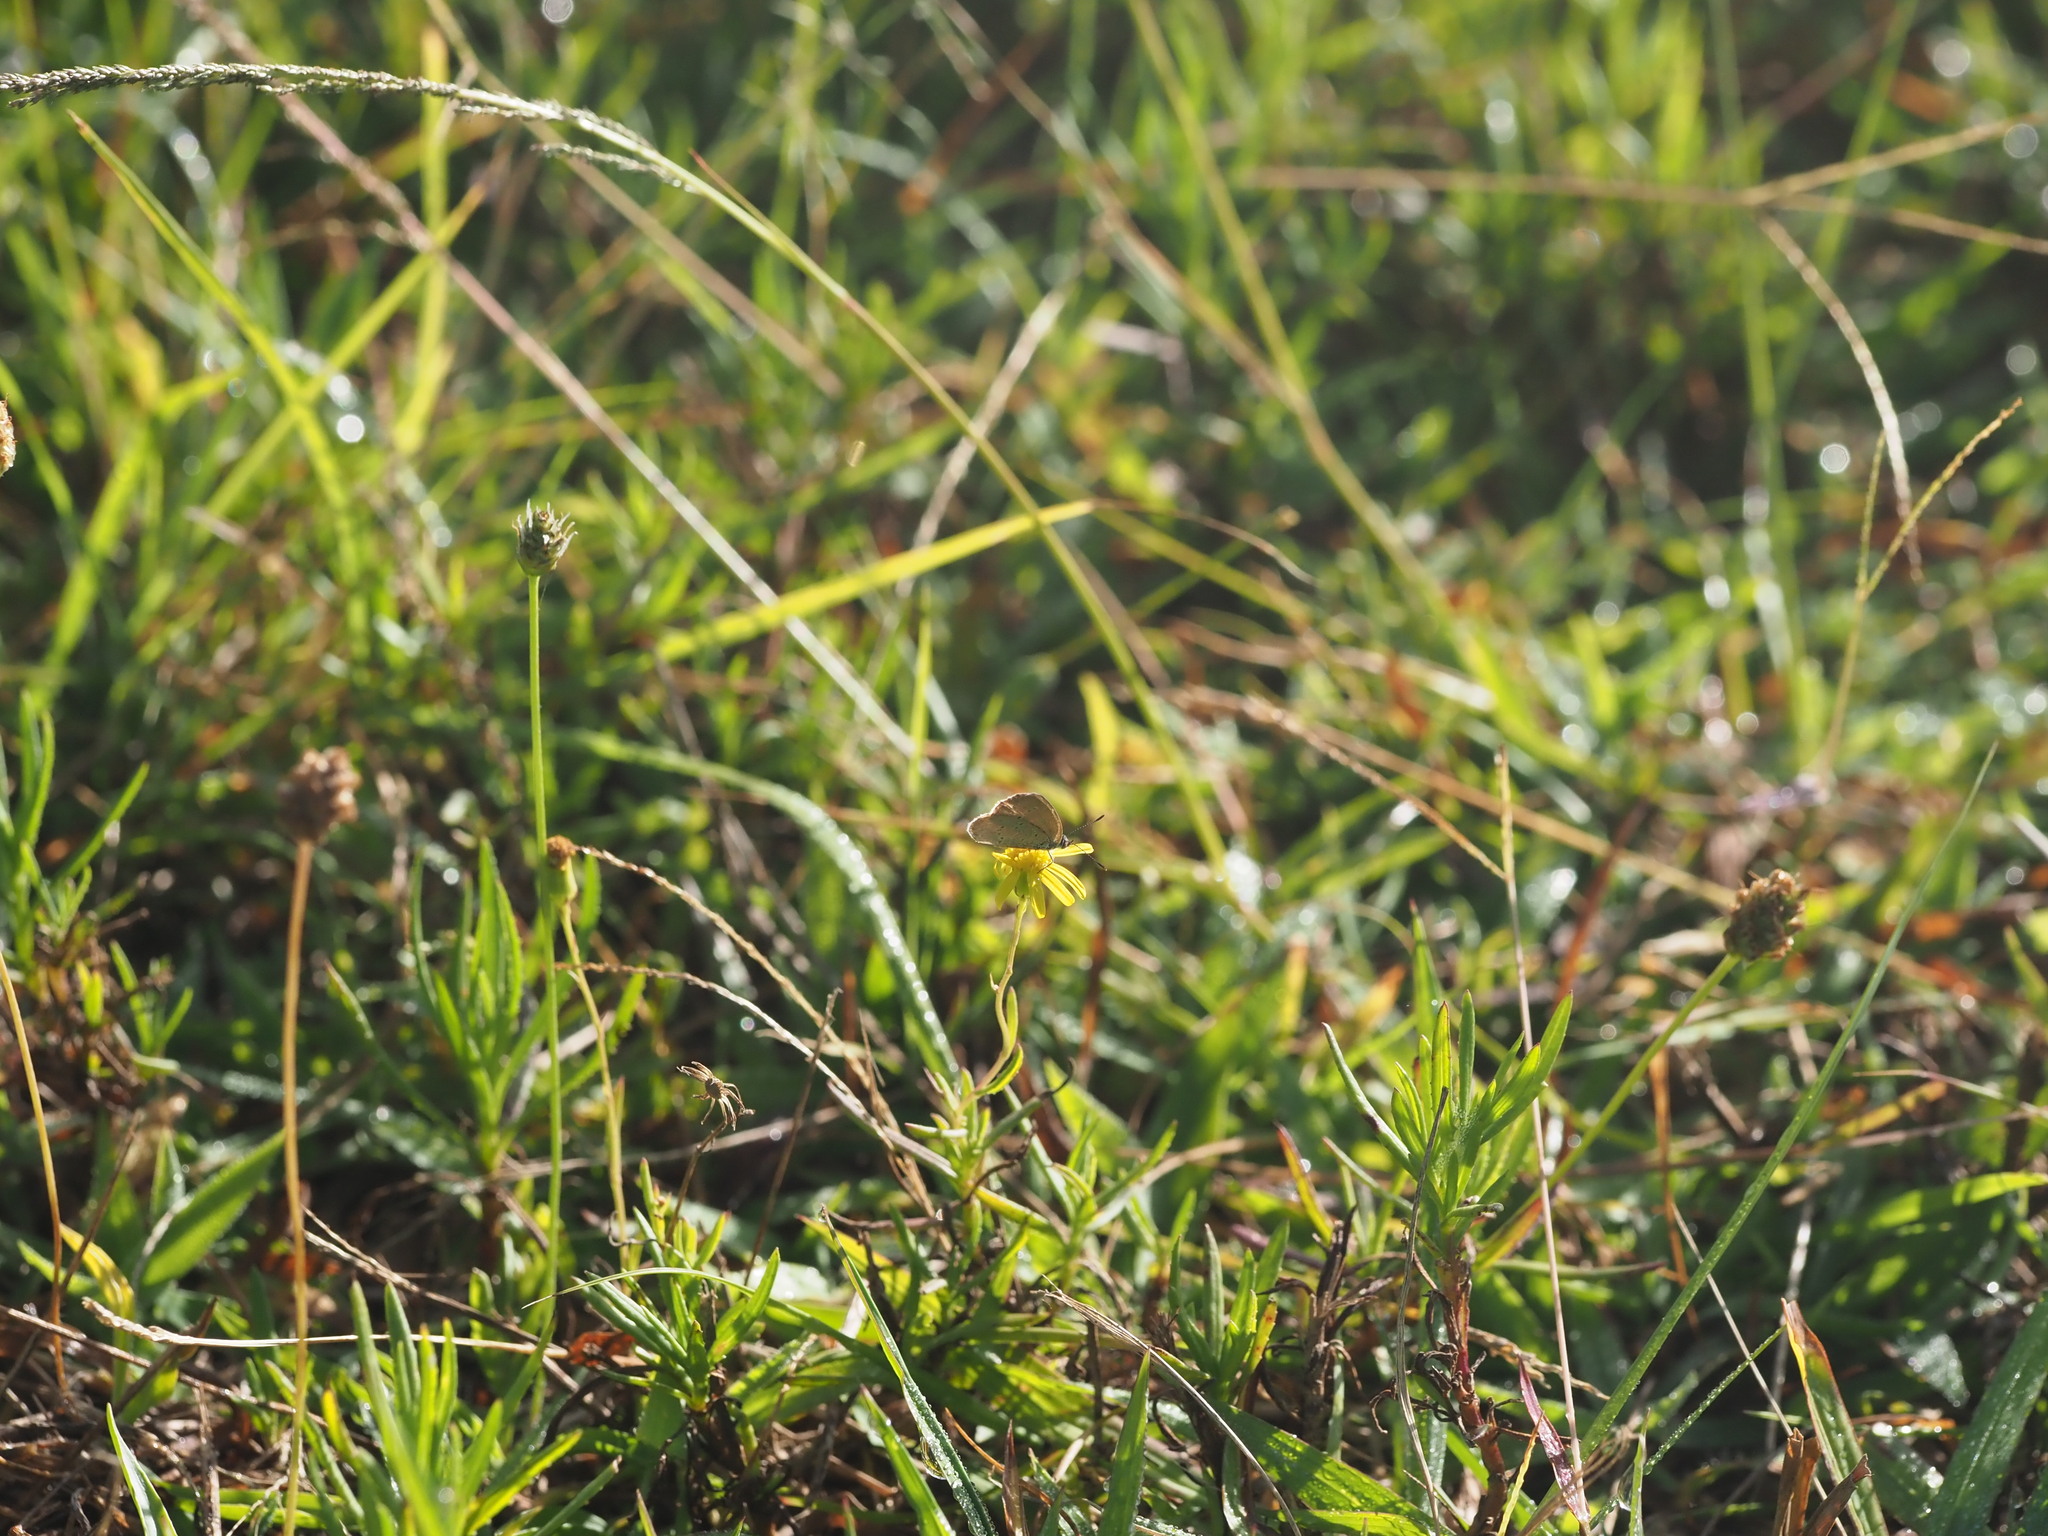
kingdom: Animalia
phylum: Arthropoda
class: Insecta
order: Lepidoptera
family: Lycaenidae
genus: Zizina
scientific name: Zizina otis
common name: Lesser grass blue
